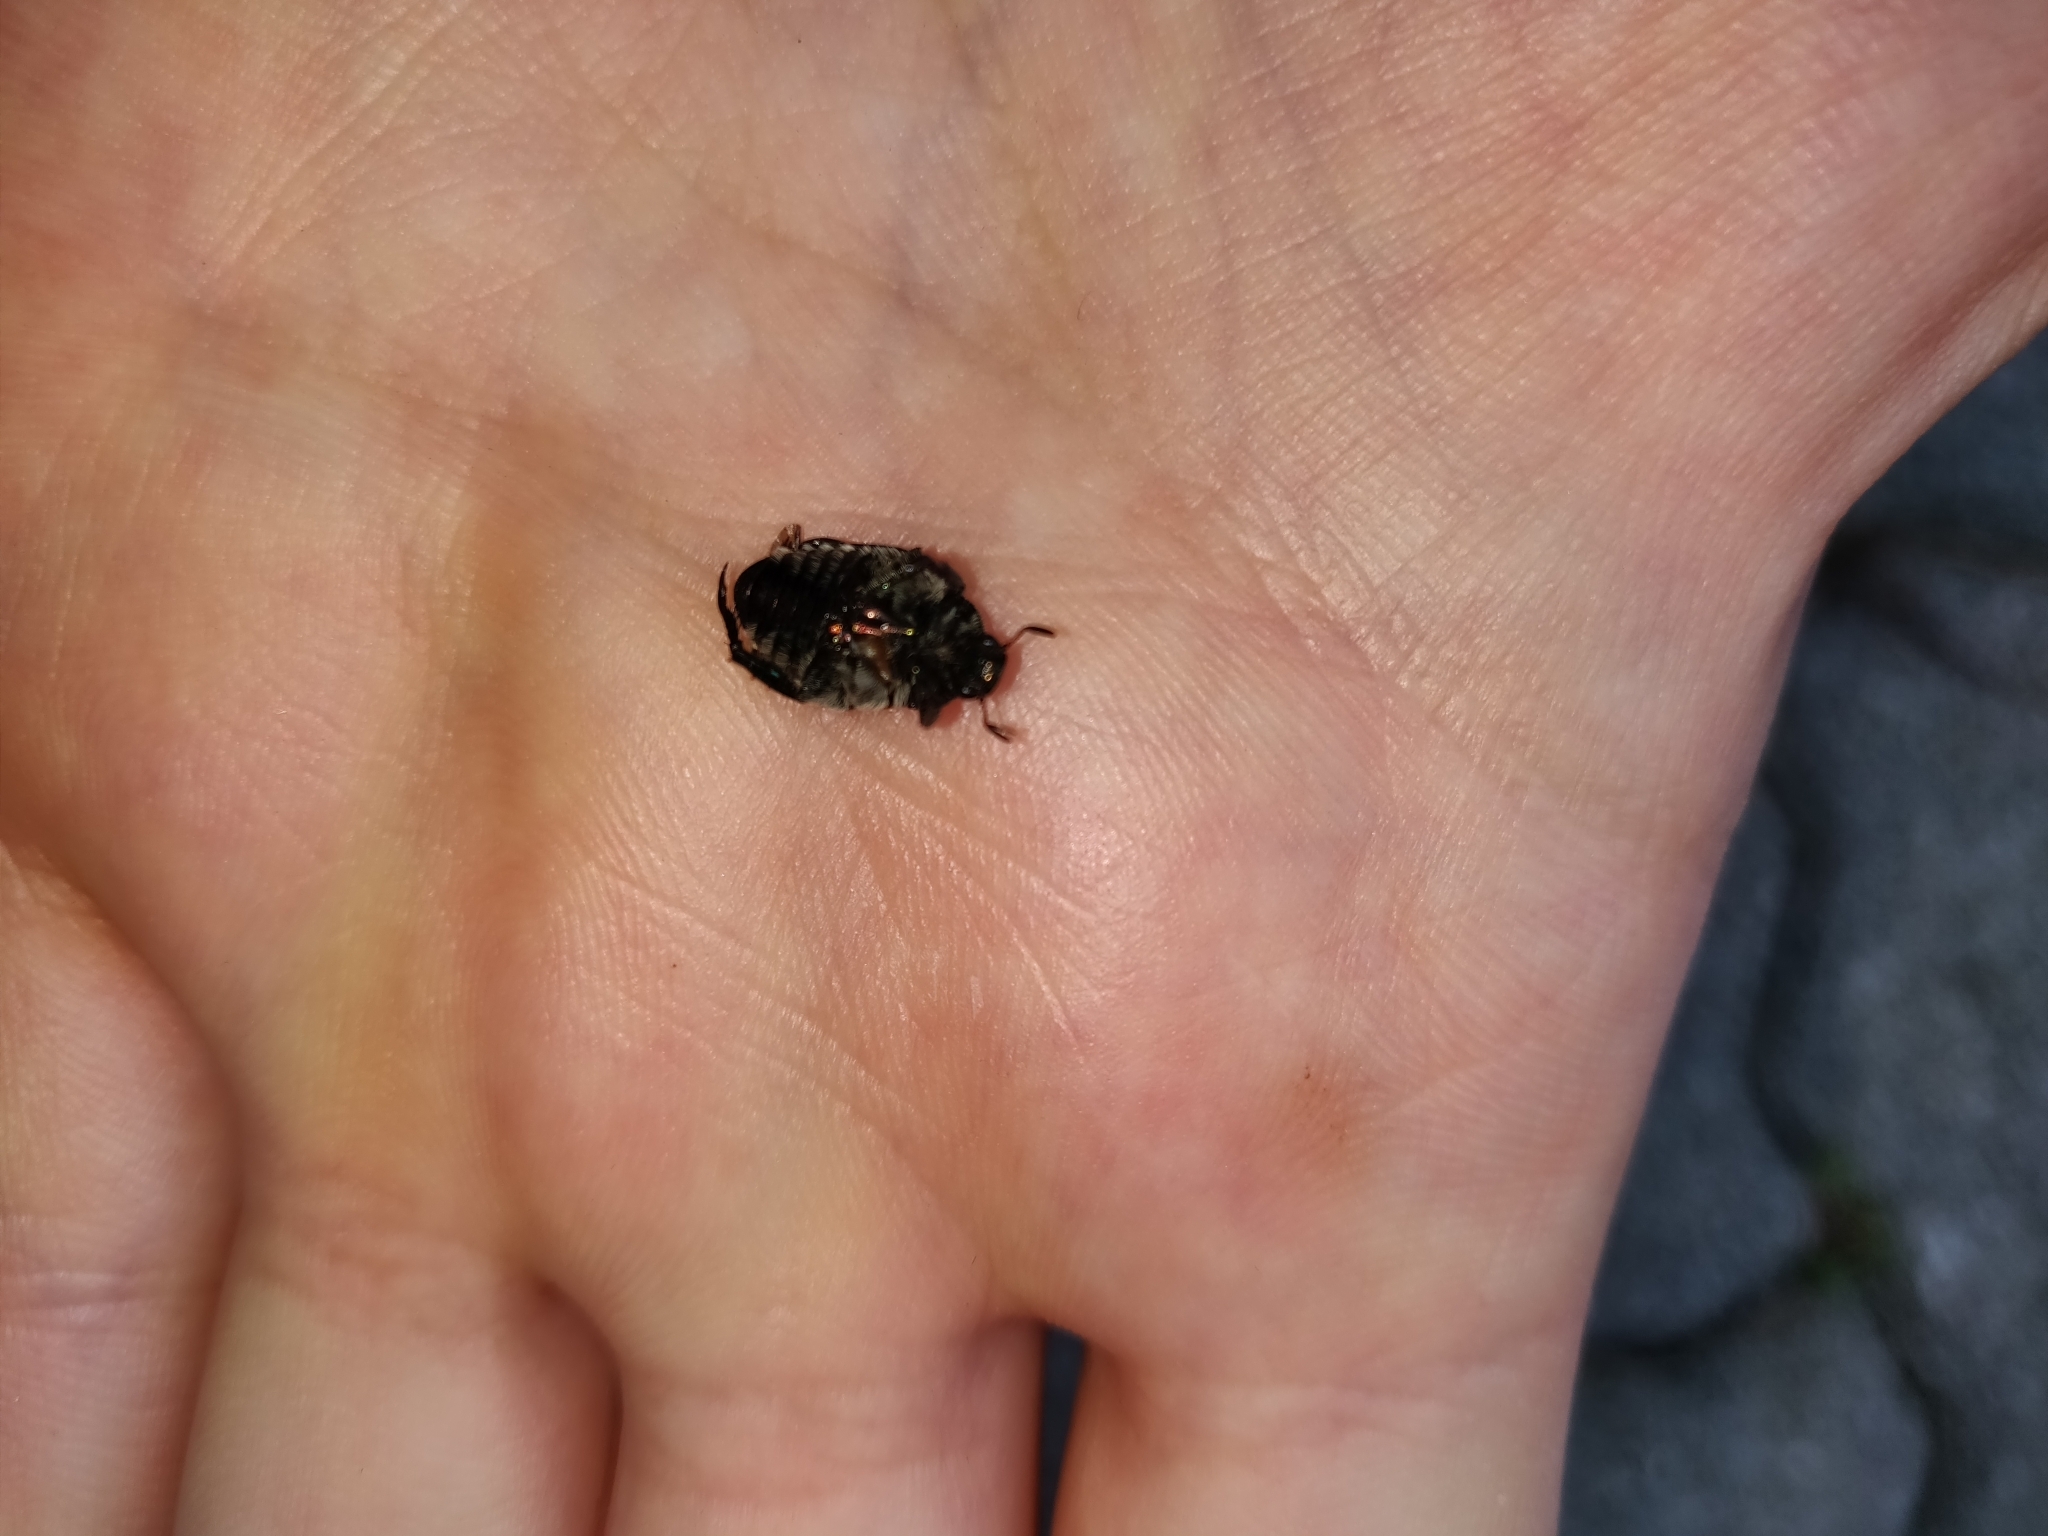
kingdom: Animalia
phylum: Arthropoda
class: Insecta
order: Coleoptera
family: Scarabaeidae
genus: Popillia
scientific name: Popillia japonica
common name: Japanese beetle
